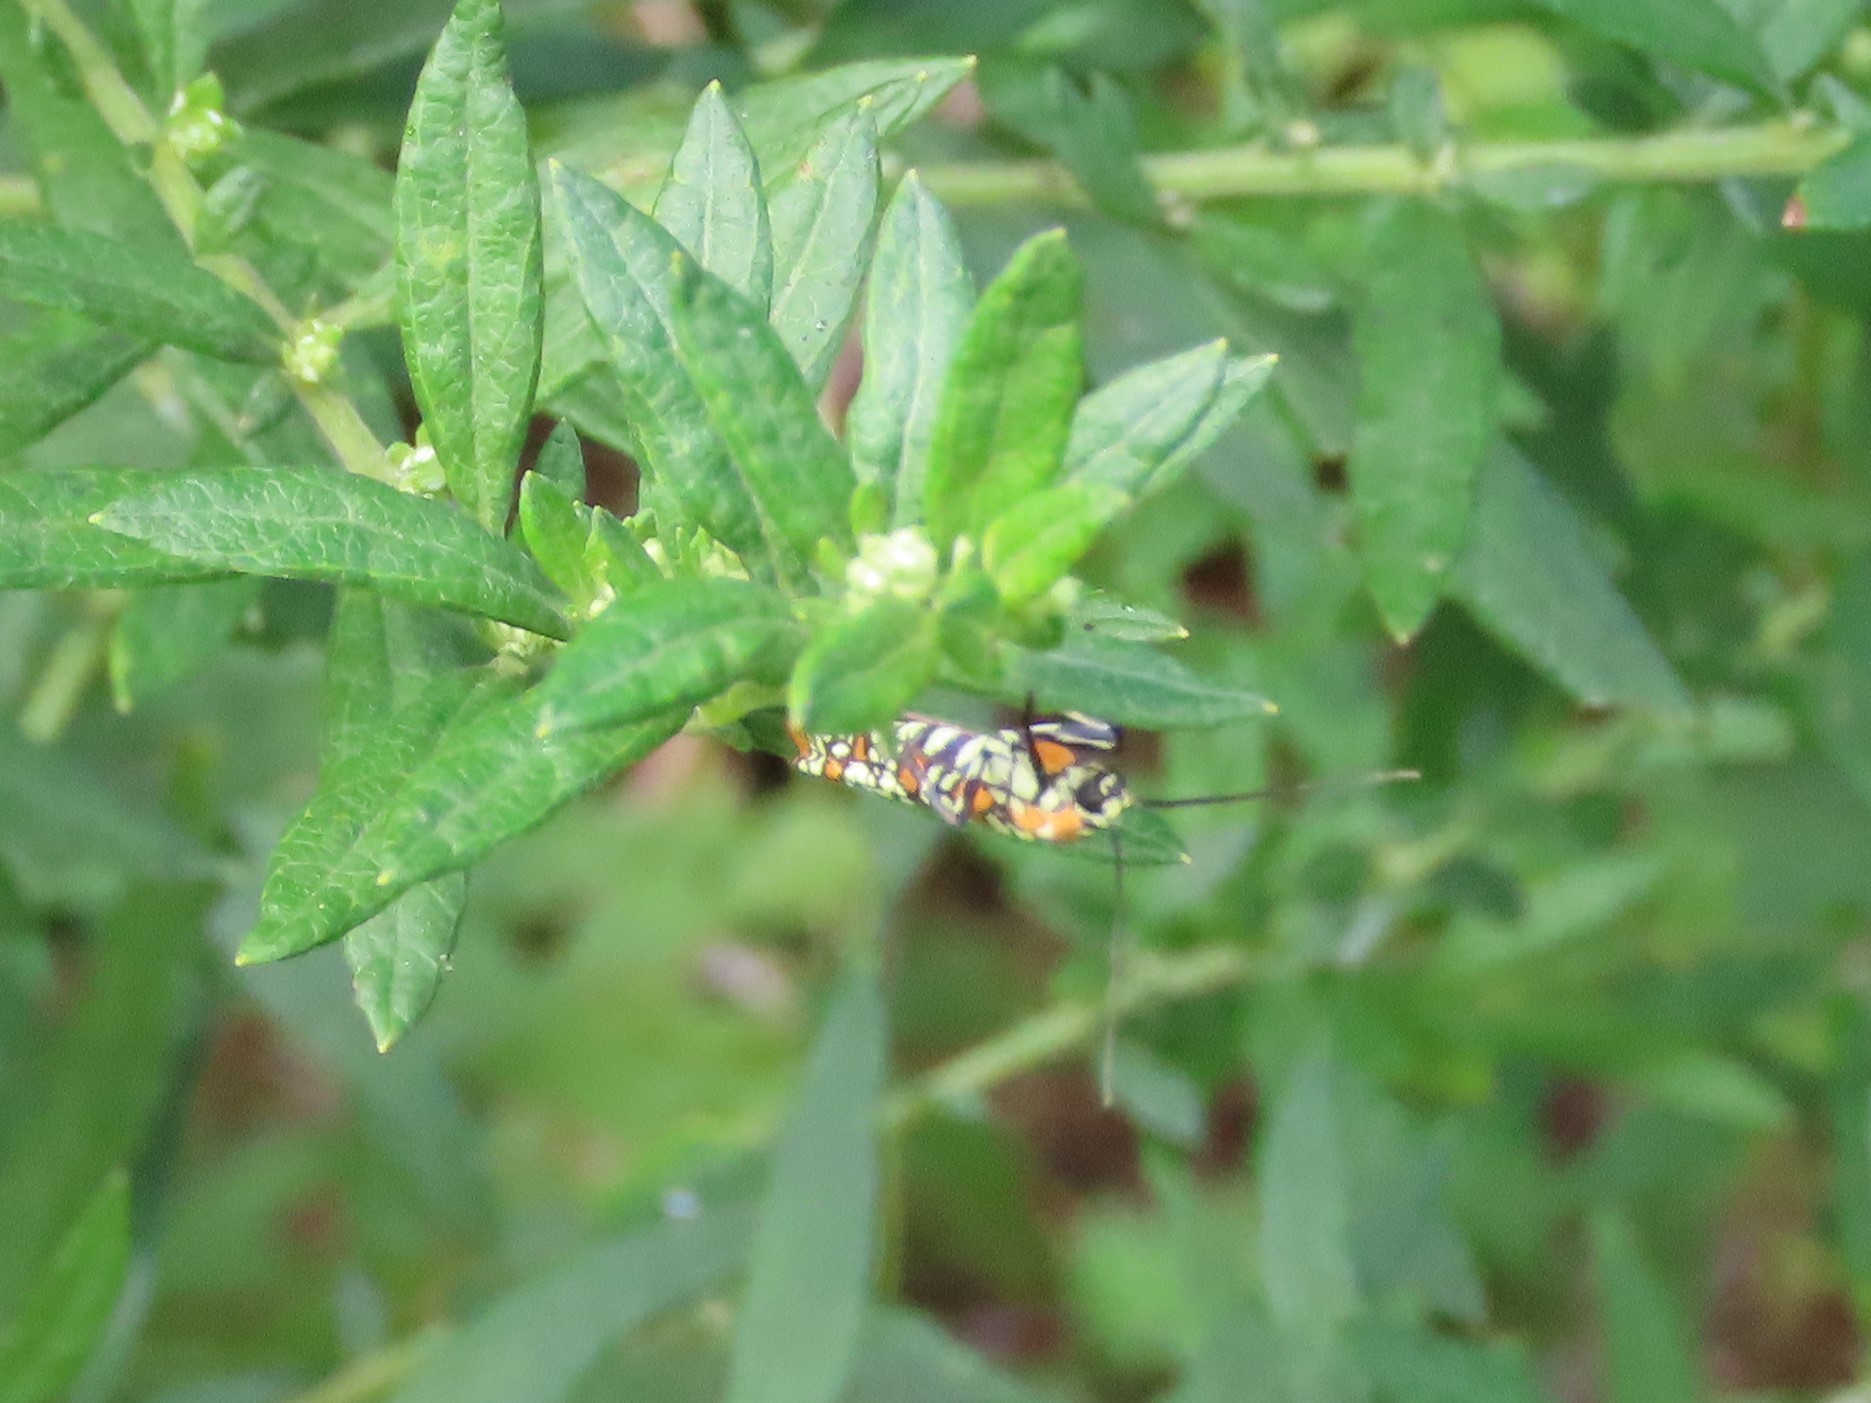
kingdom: Animalia
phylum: Arthropoda
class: Insecta
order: Lepidoptera
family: Attevidae
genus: Atteva
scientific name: Atteva punctella
